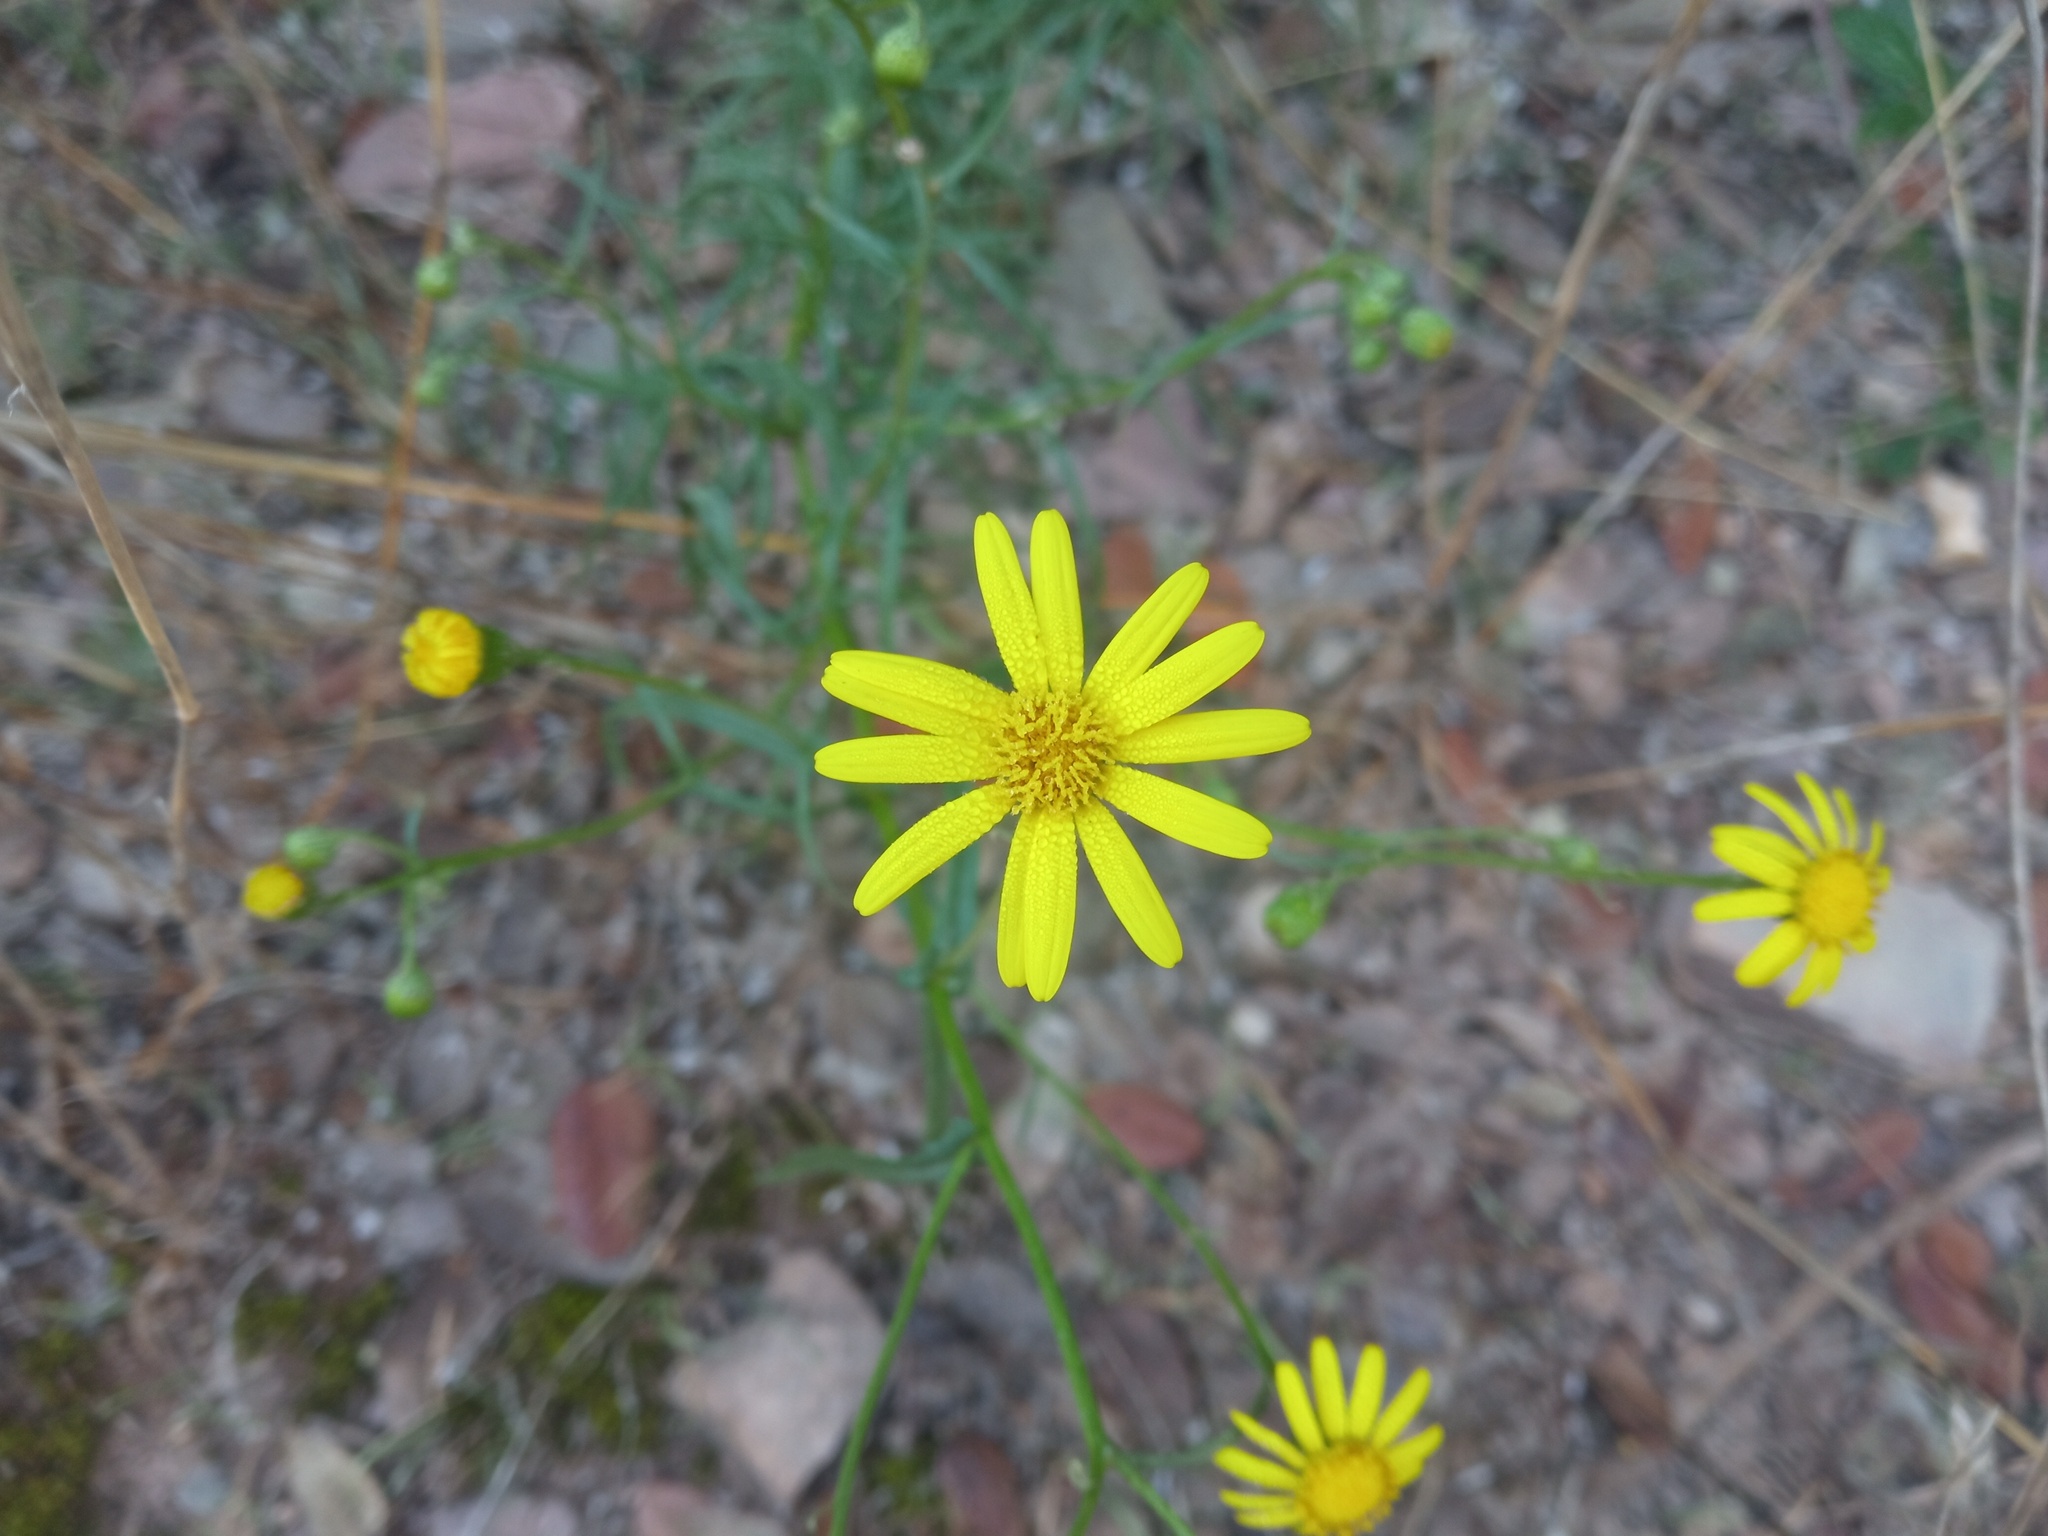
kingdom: Plantae
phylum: Tracheophyta
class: Magnoliopsida
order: Asterales
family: Asteraceae
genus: Senecio
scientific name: Senecio inaequidens
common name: Narrow-leaved ragwort
